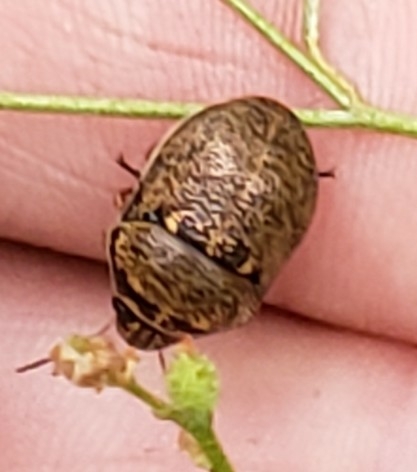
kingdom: Animalia
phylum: Arthropoda
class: Insecta
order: Hemiptera
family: Scutelleridae
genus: Orsilochides
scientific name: Orsilochides guttata
